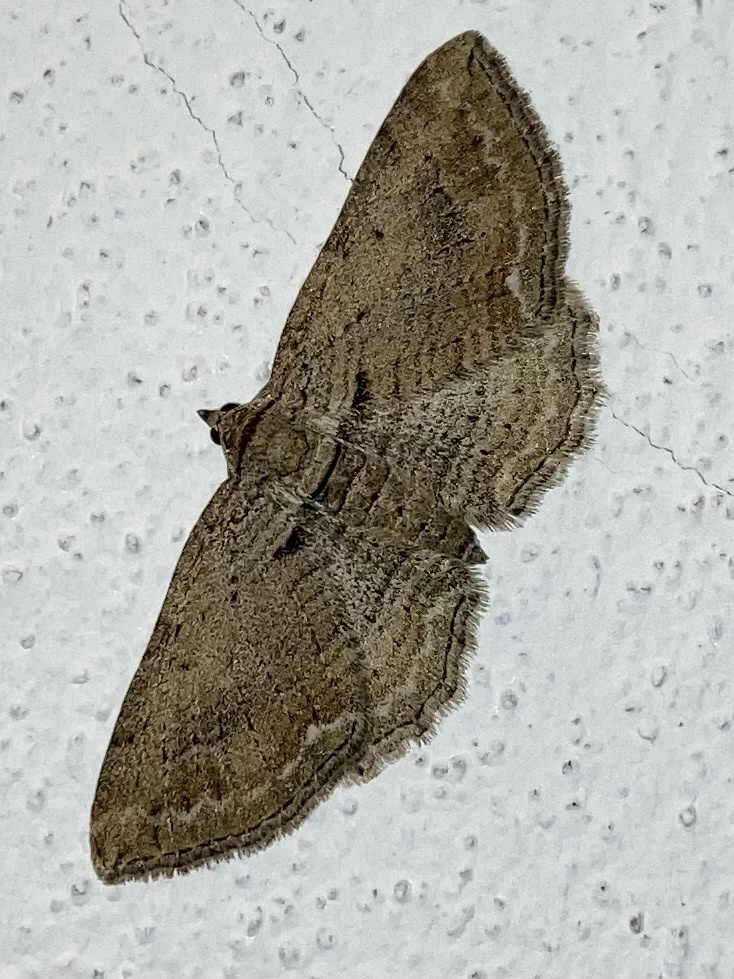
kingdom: Animalia
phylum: Arthropoda
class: Insecta
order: Lepidoptera
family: Geometridae
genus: Horisme
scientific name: Horisme
